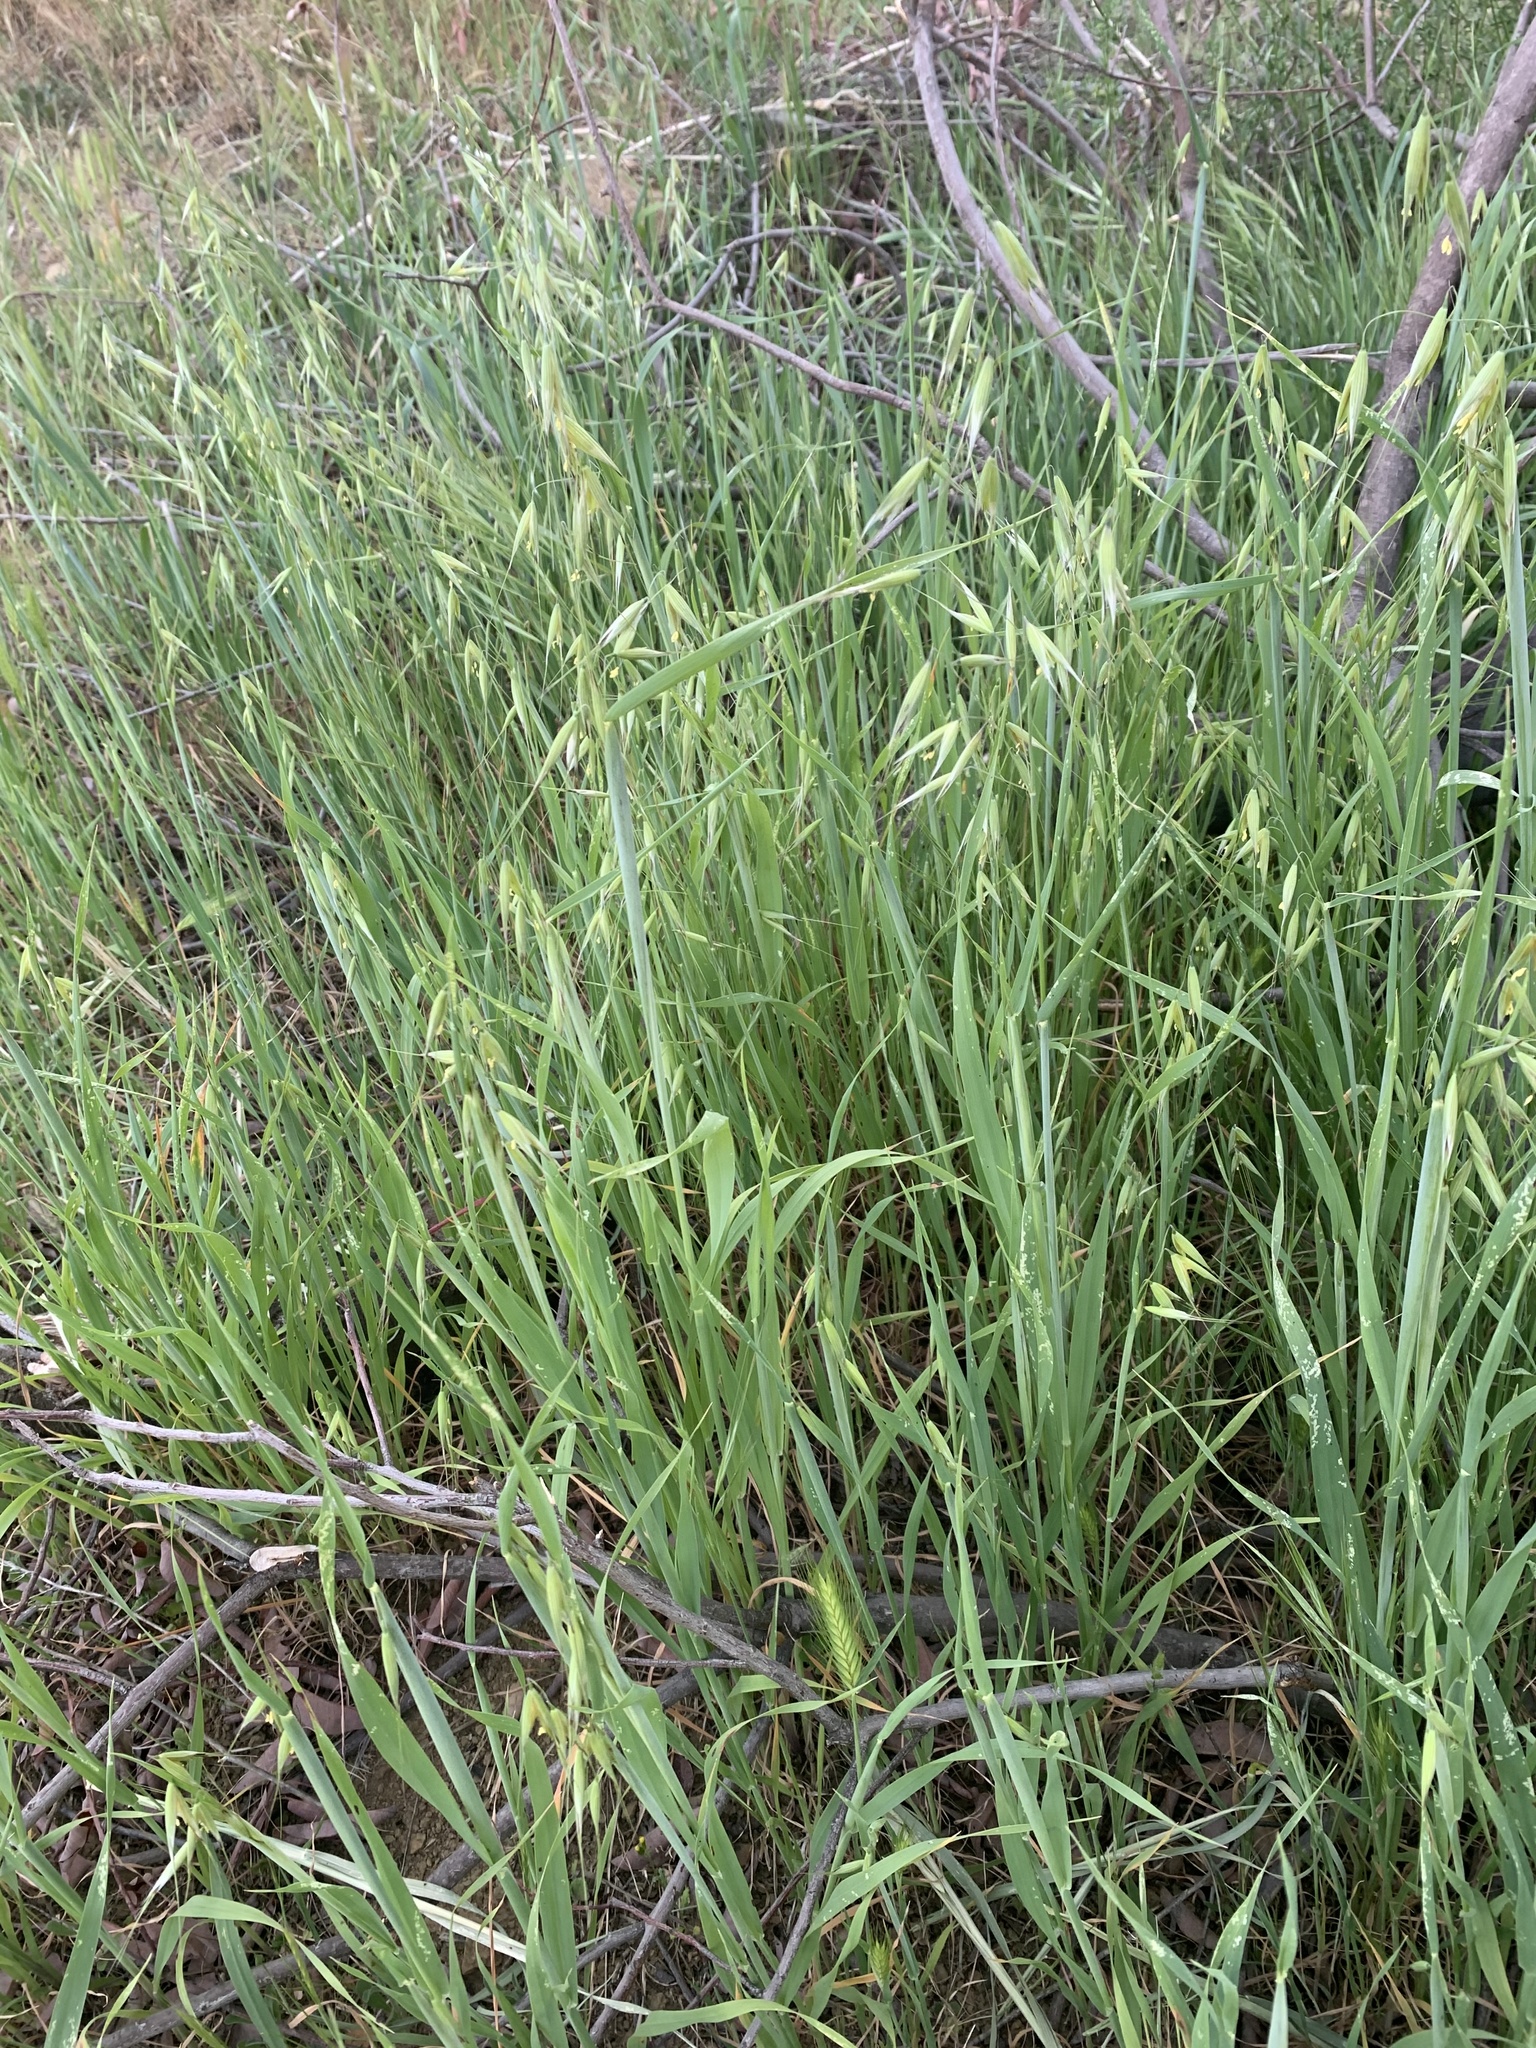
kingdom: Plantae
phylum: Tracheophyta
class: Liliopsida
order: Poales
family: Poaceae
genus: Avena
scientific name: Avena fatua
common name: Wild oat
